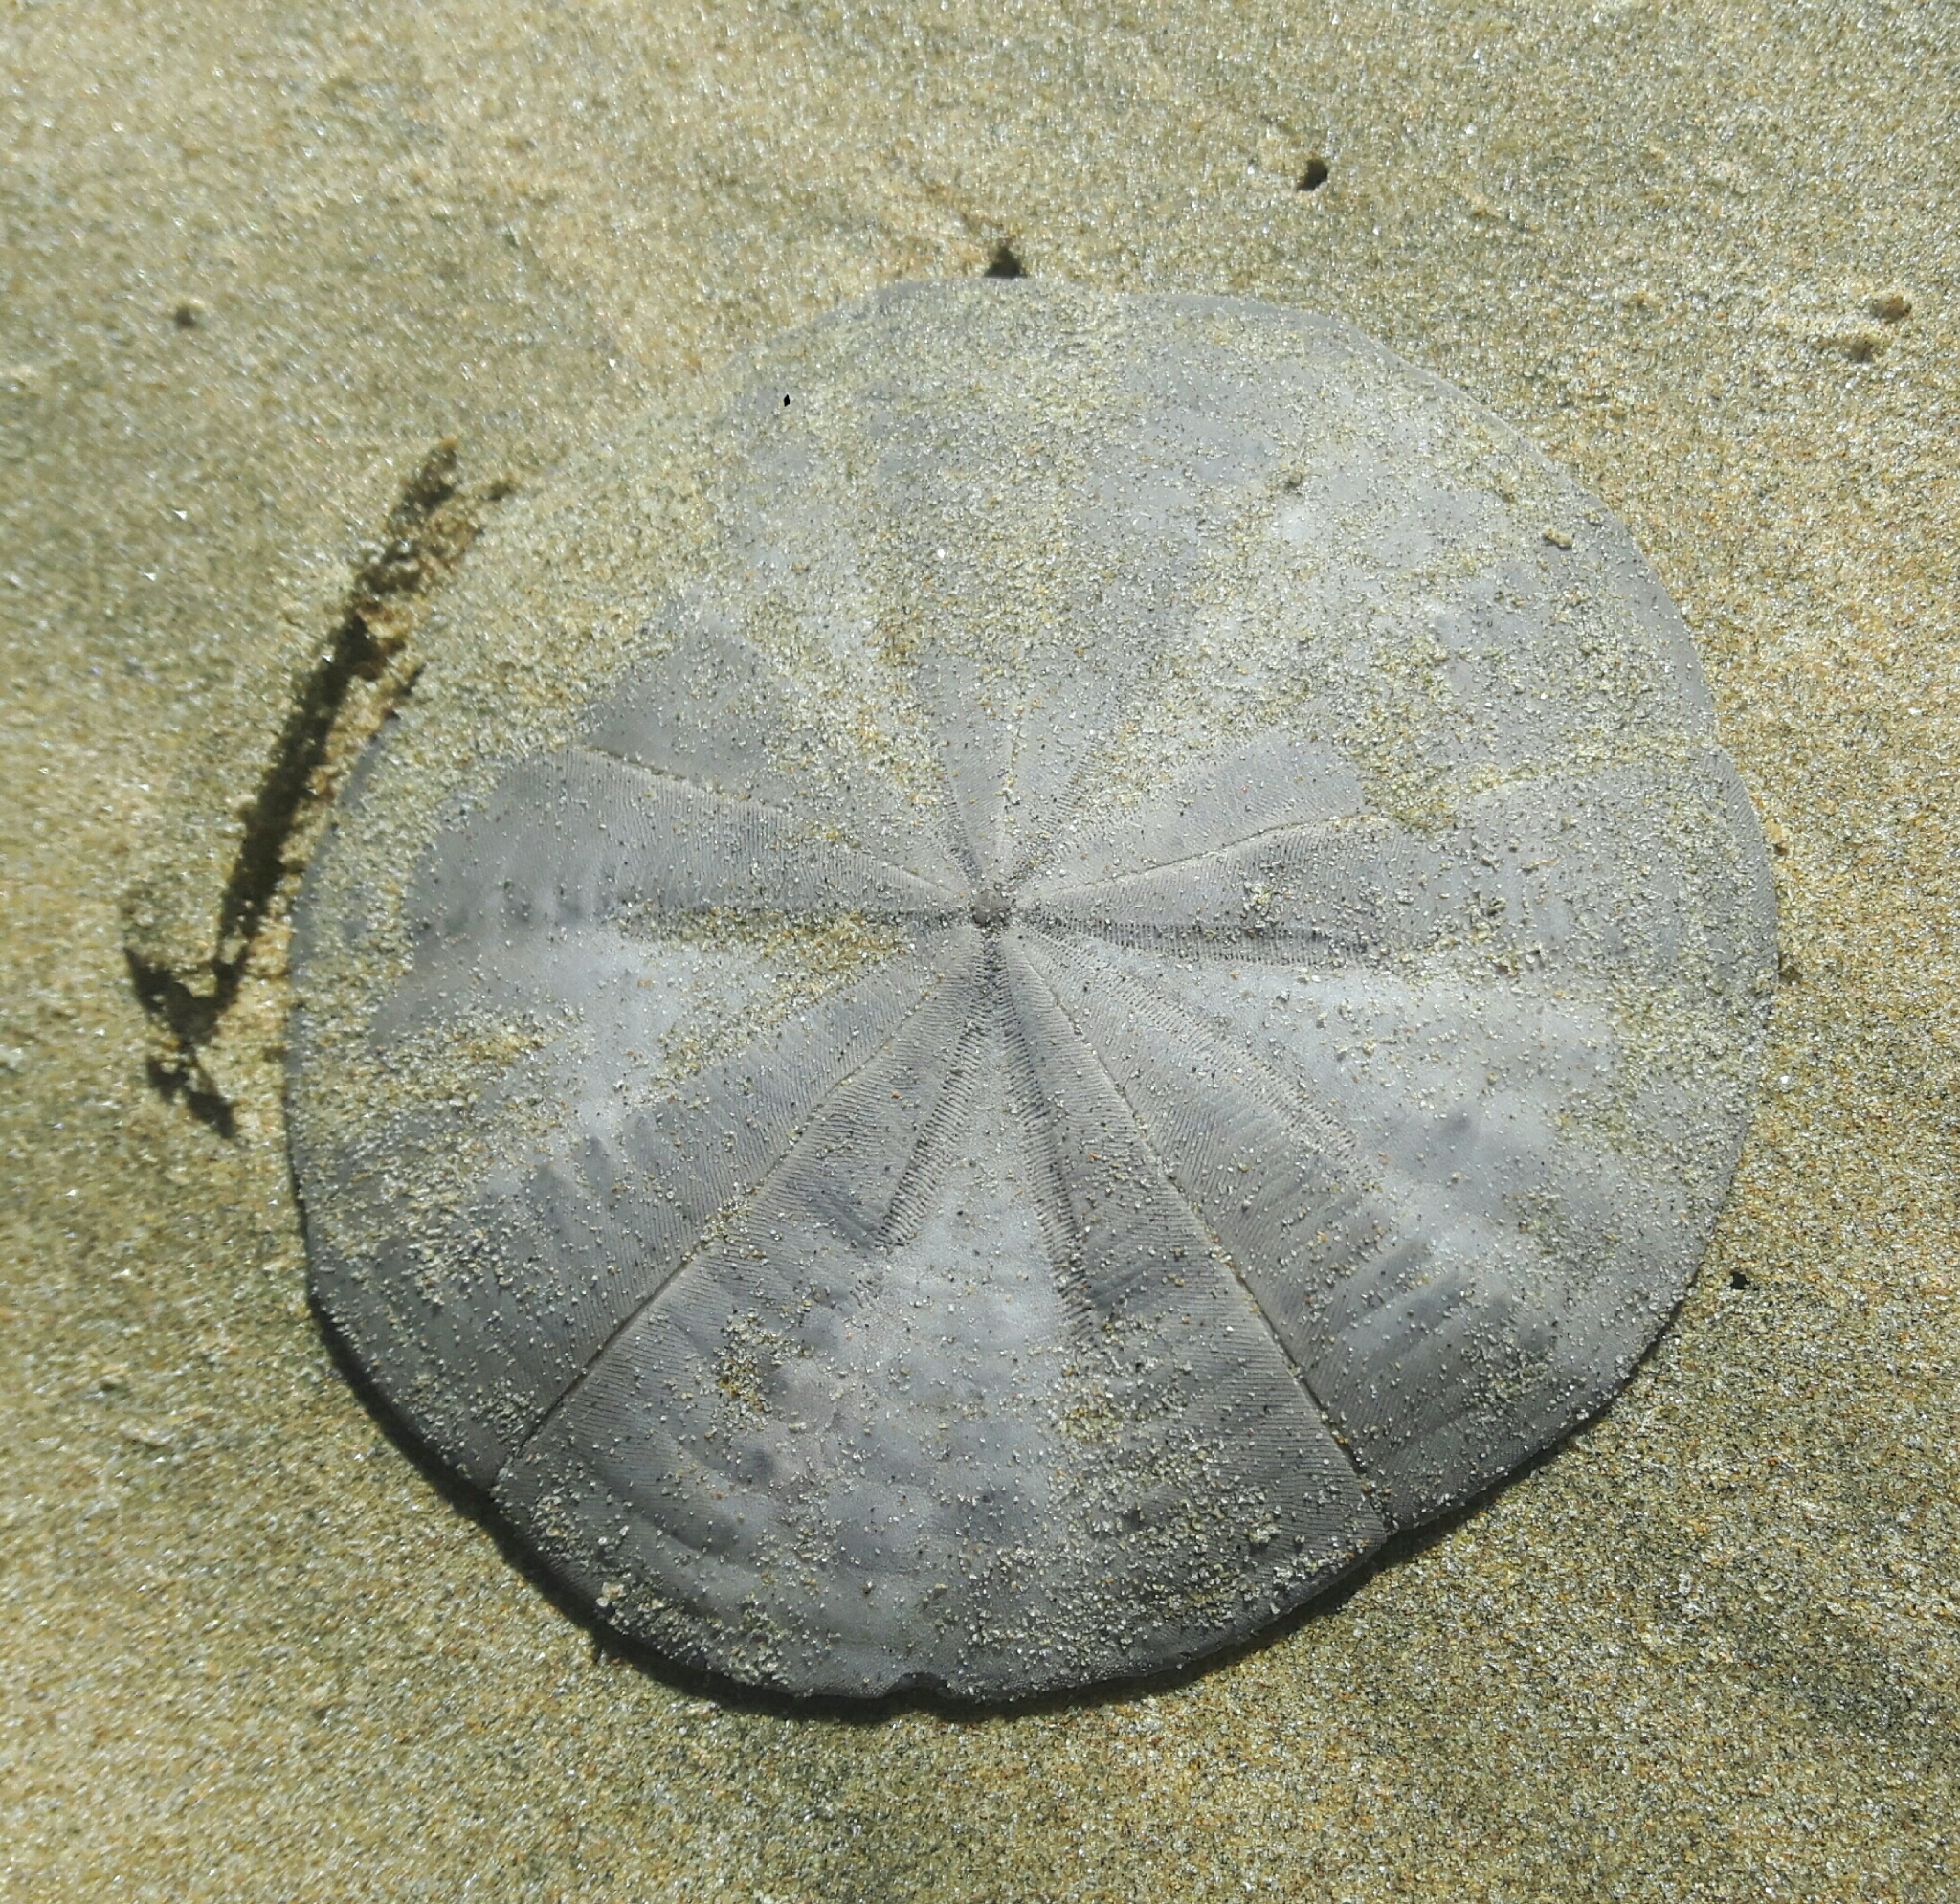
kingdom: Animalia
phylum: Echinodermata
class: Echinoidea
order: Clypeasteroida
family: Clypeasteridae
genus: Fellaster
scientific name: Fellaster zelandiae
